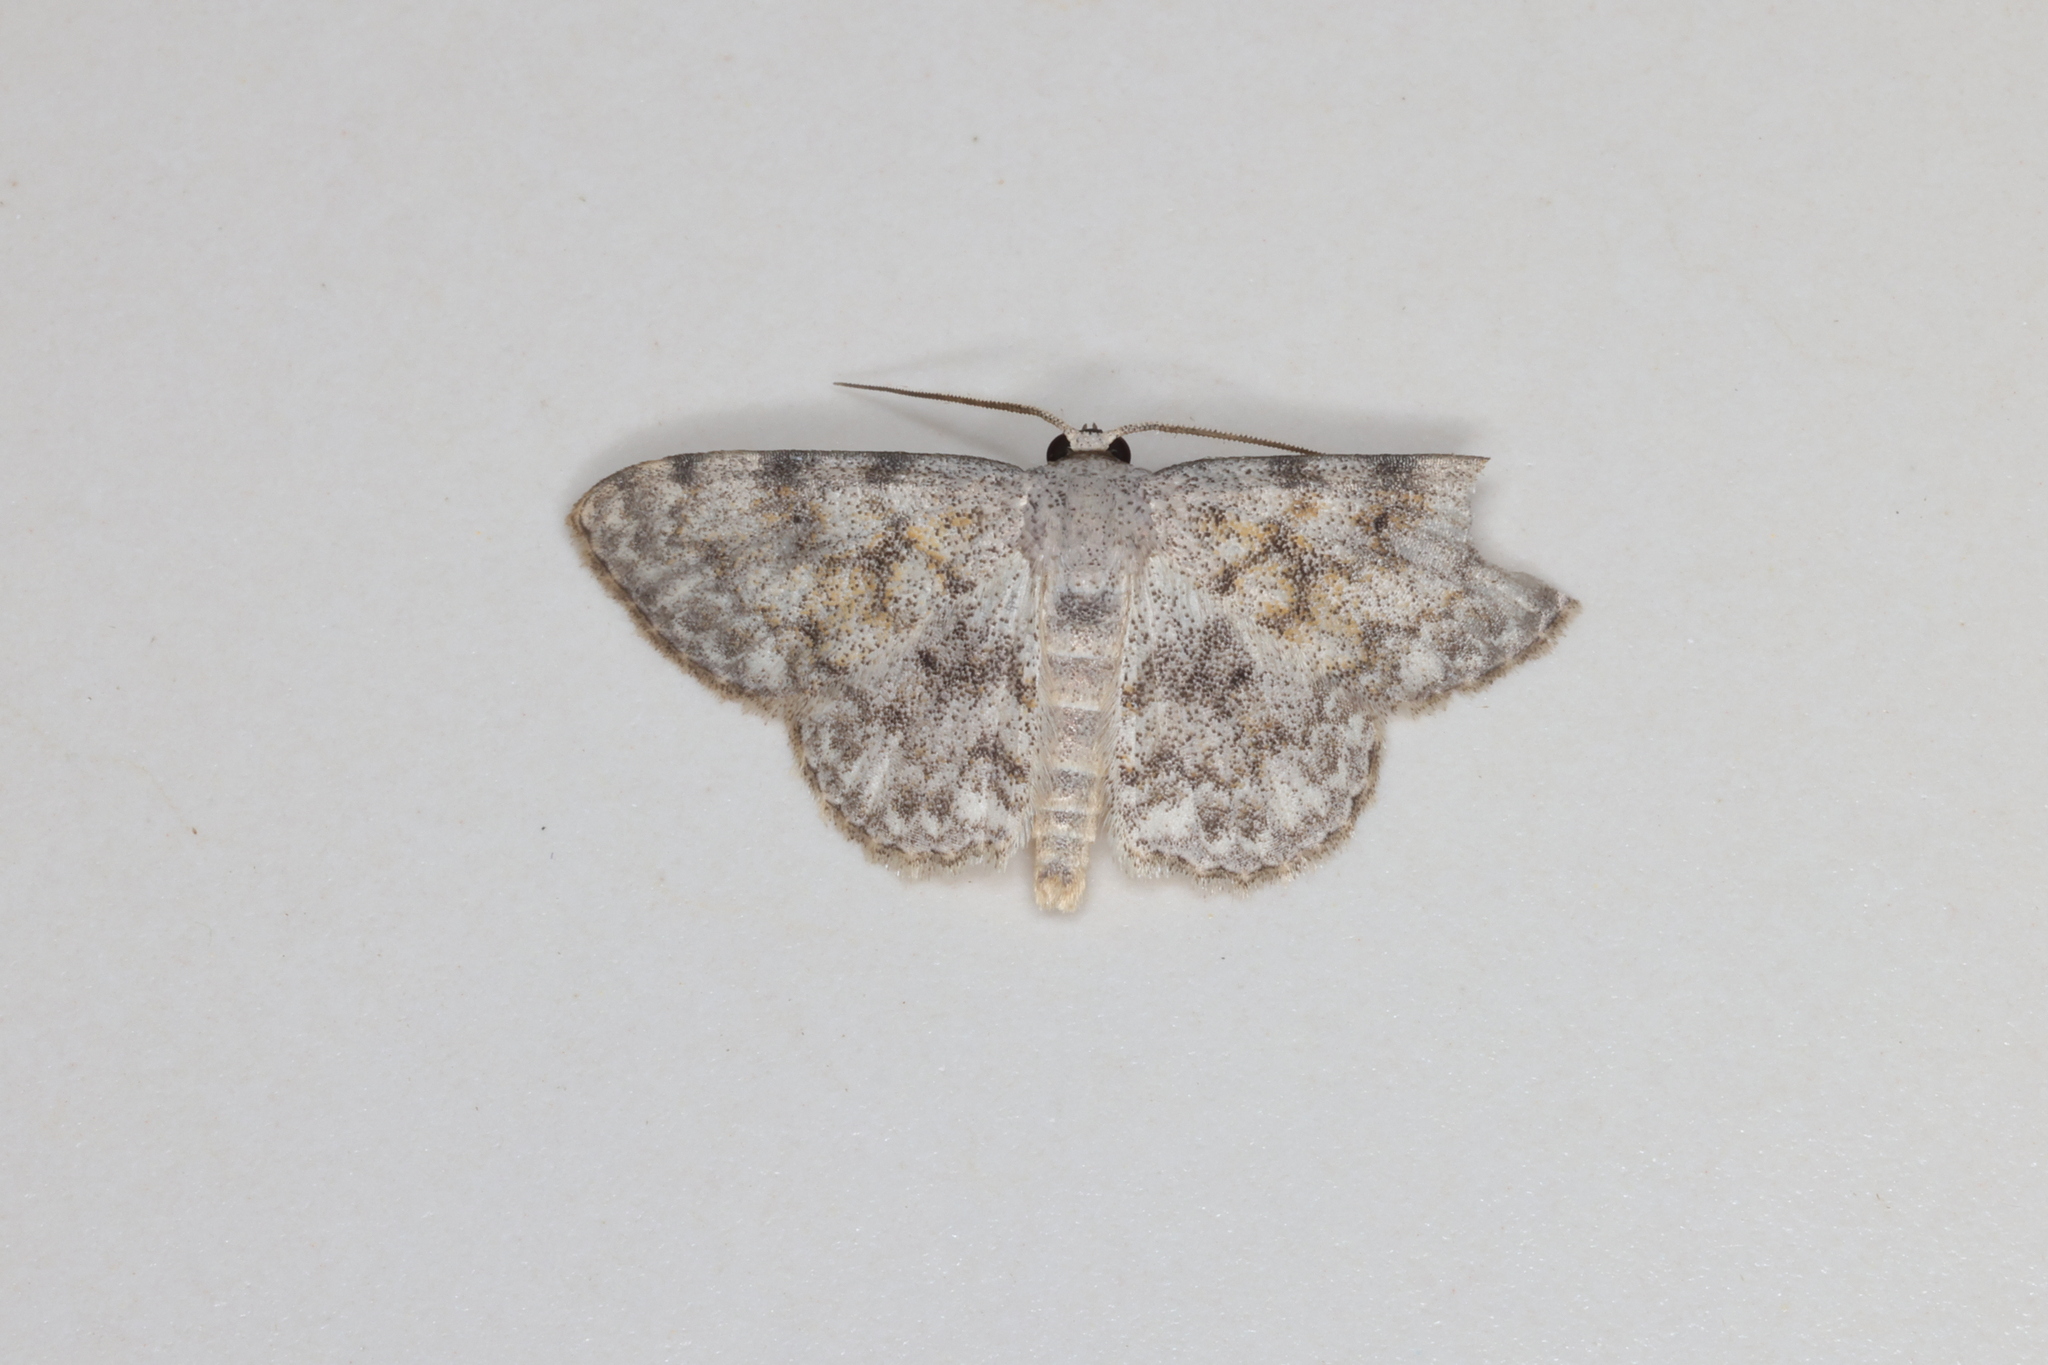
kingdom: Animalia
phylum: Arthropoda
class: Insecta
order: Lepidoptera
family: Geometridae
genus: Scopula
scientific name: Scopula fibulata
